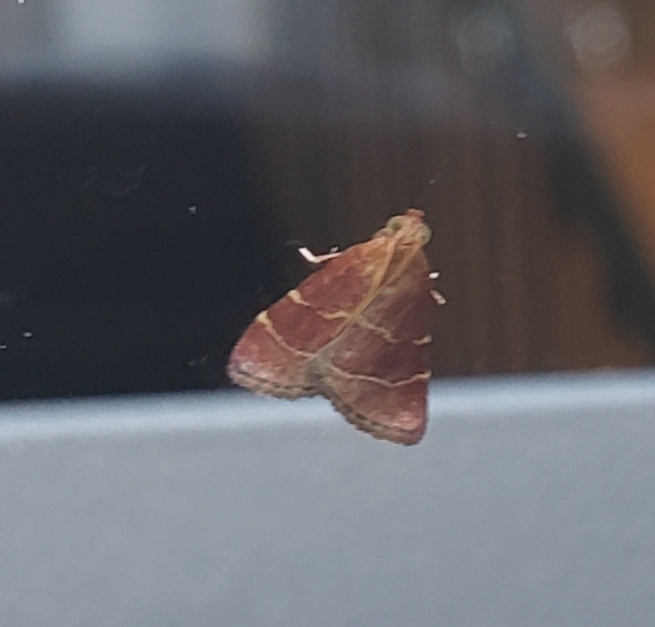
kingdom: Animalia
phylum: Arthropoda
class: Insecta
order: Lepidoptera
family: Pyralidae
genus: Arta
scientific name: Arta statalis
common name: Posturing arta moth
